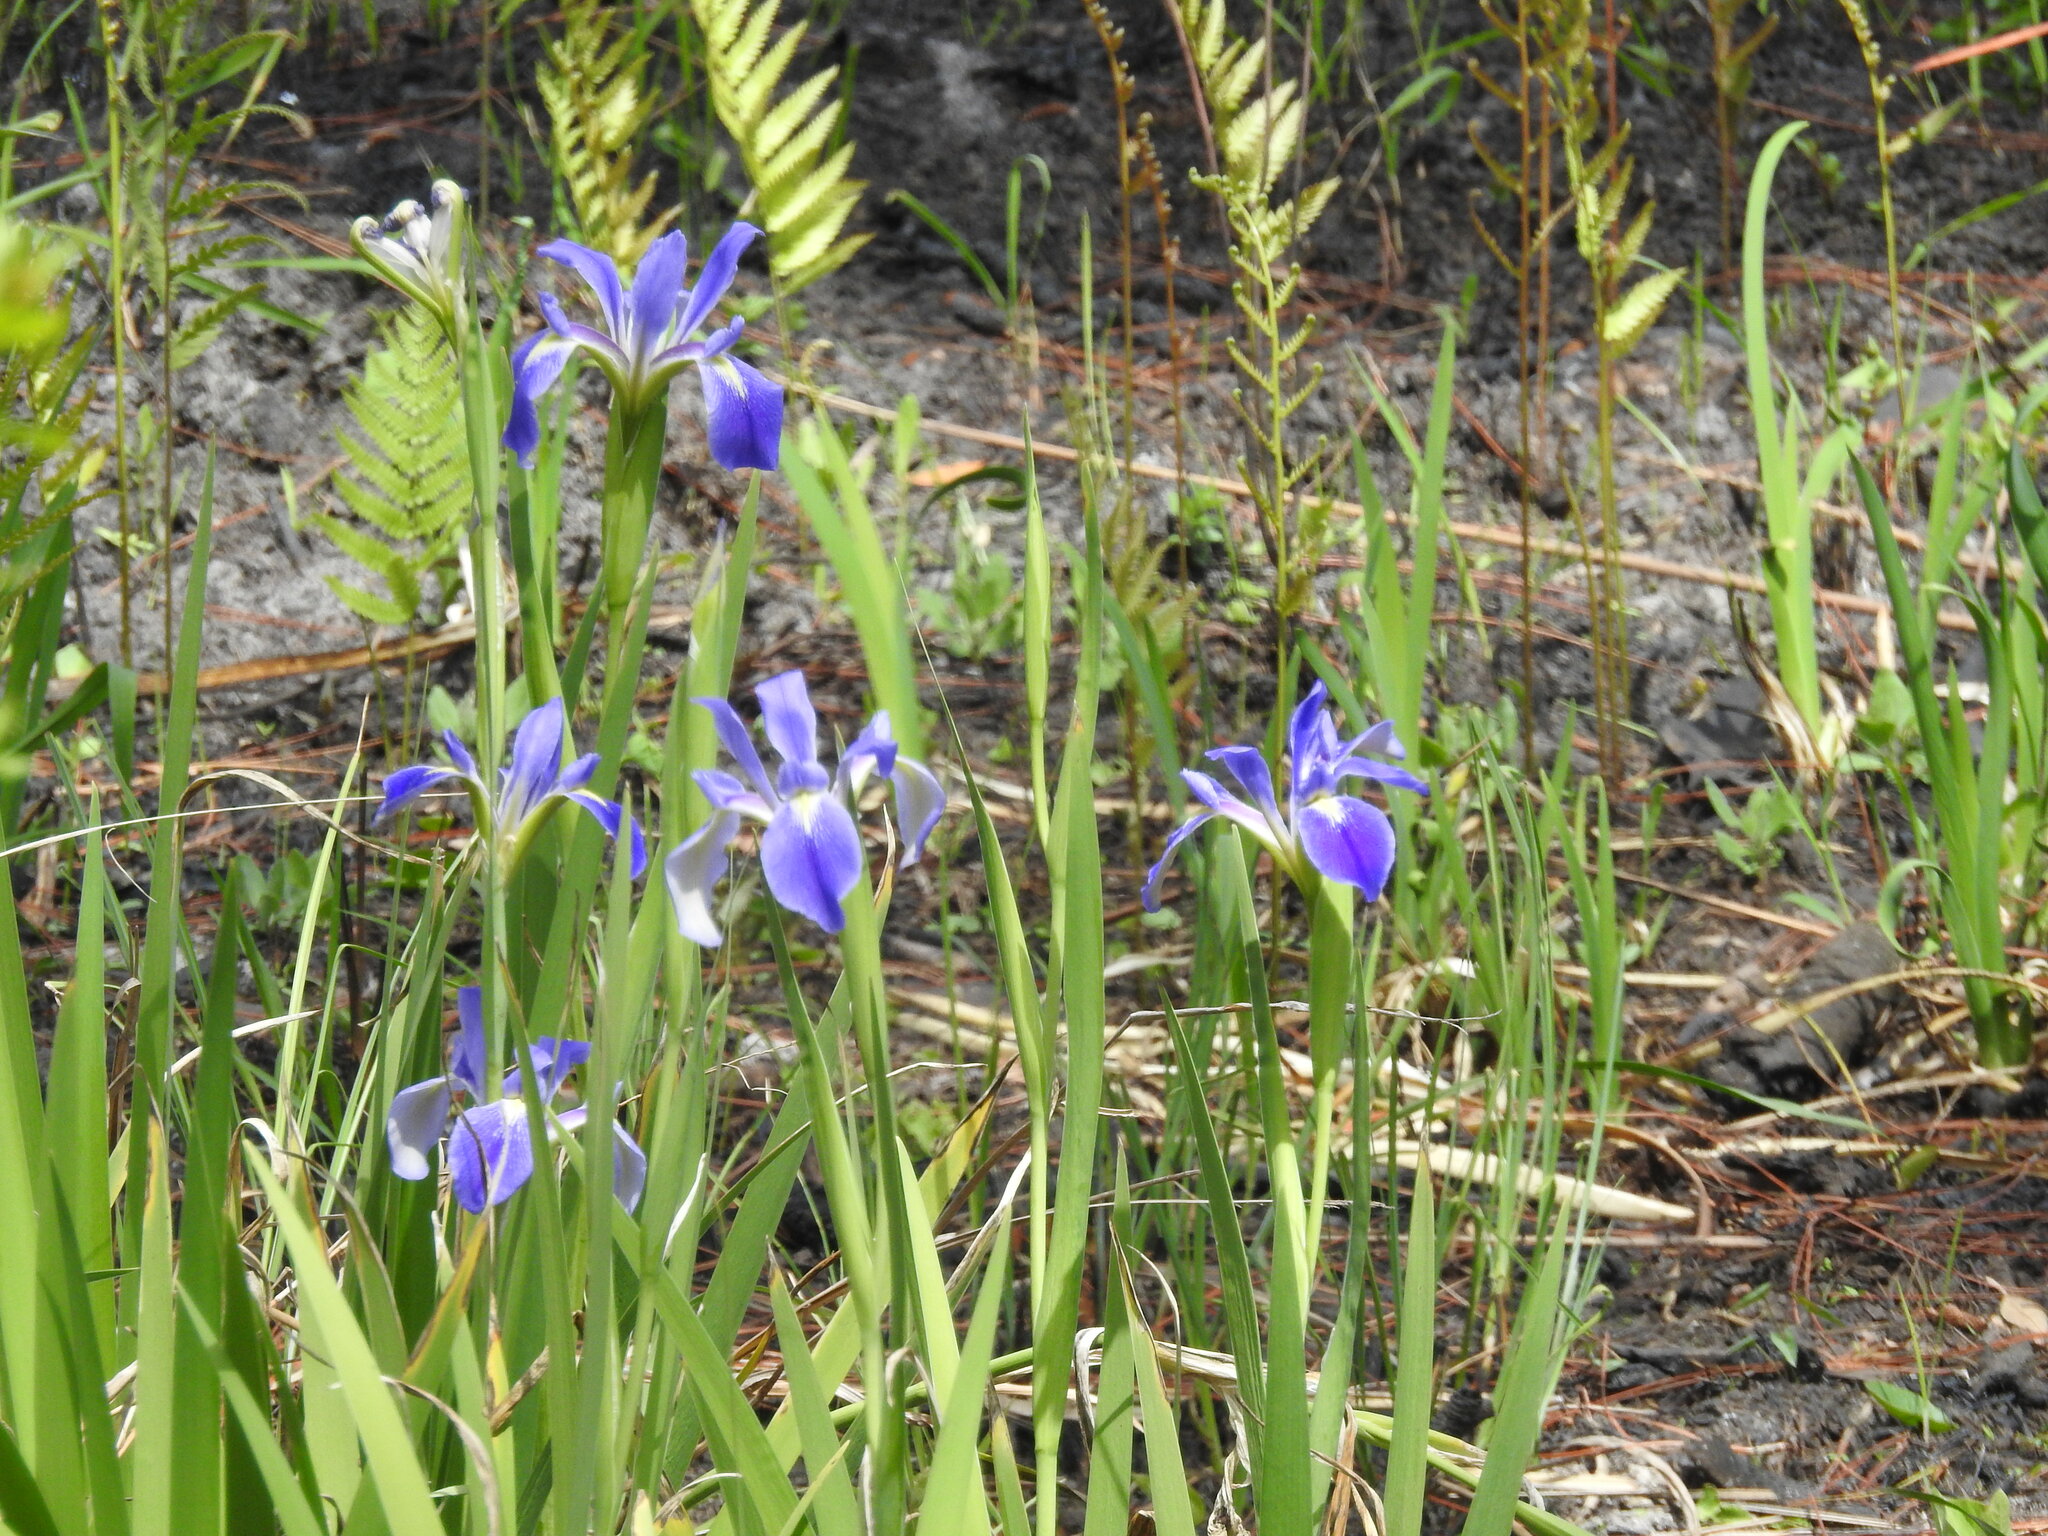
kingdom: Plantae
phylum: Tracheophyta
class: Liliopsida
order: Asparagales
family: Iridaceae
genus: Iris
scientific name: Iris savannarum
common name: Prairie iris
